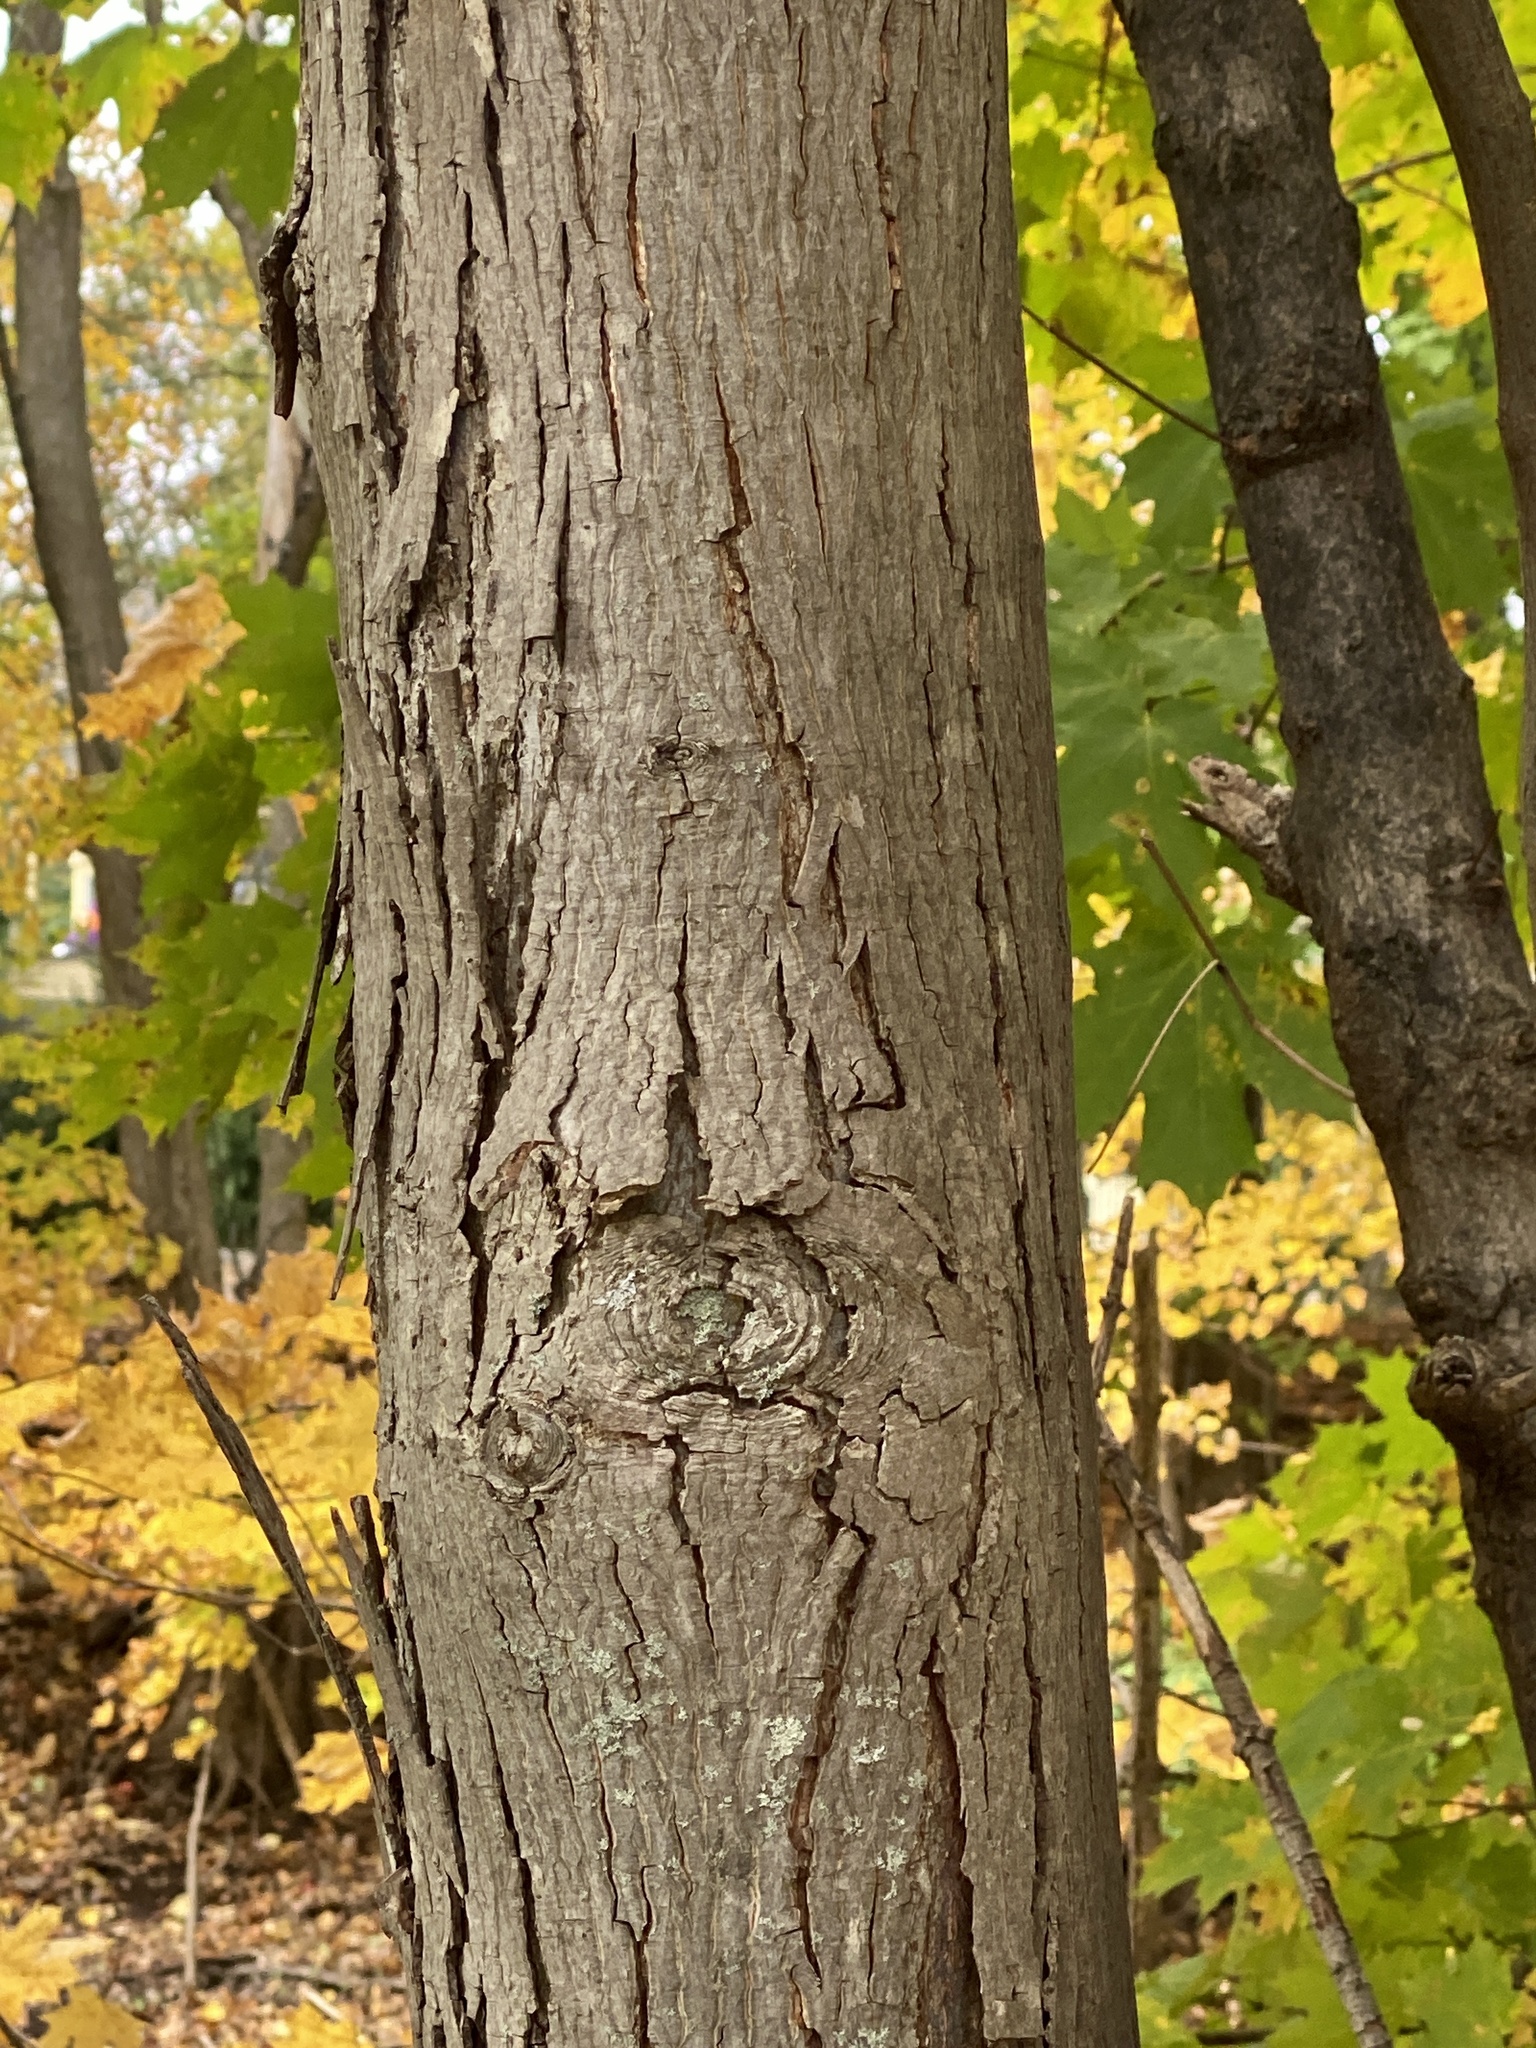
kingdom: Plantae
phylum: Tracheophyta
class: Magnoliopsida
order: Fagales
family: Juglandaceae
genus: Carya
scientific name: Carya ovata
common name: Shagbark hickory
